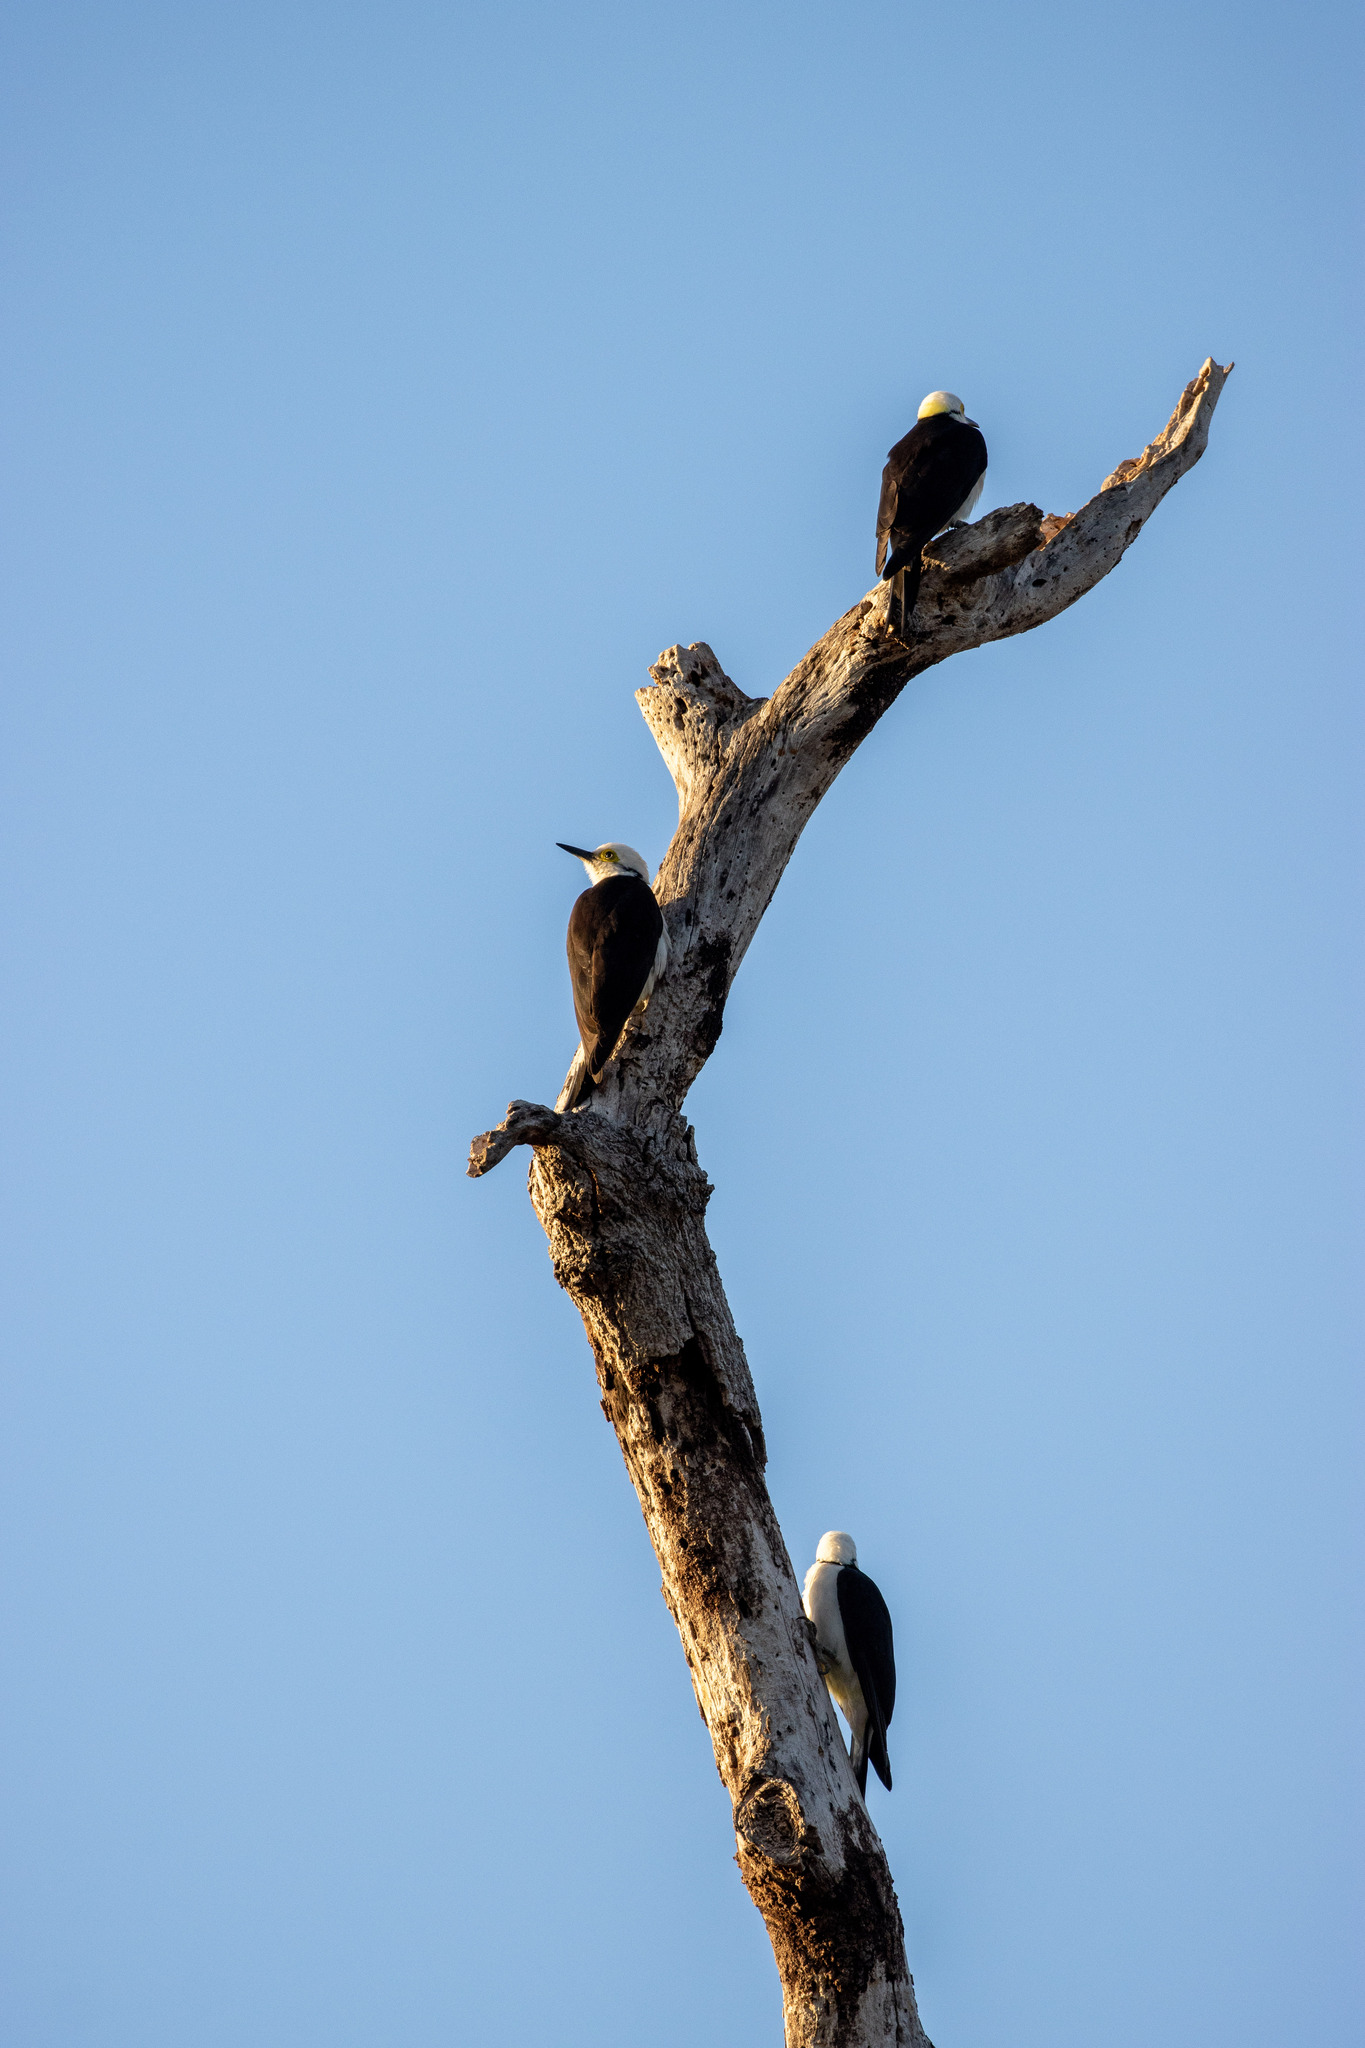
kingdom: Animalia
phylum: Chordata
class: Aves
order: Piciformes
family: Picidae
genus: Melanerpes
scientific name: Melanerpes candidus
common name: White woodpecker
